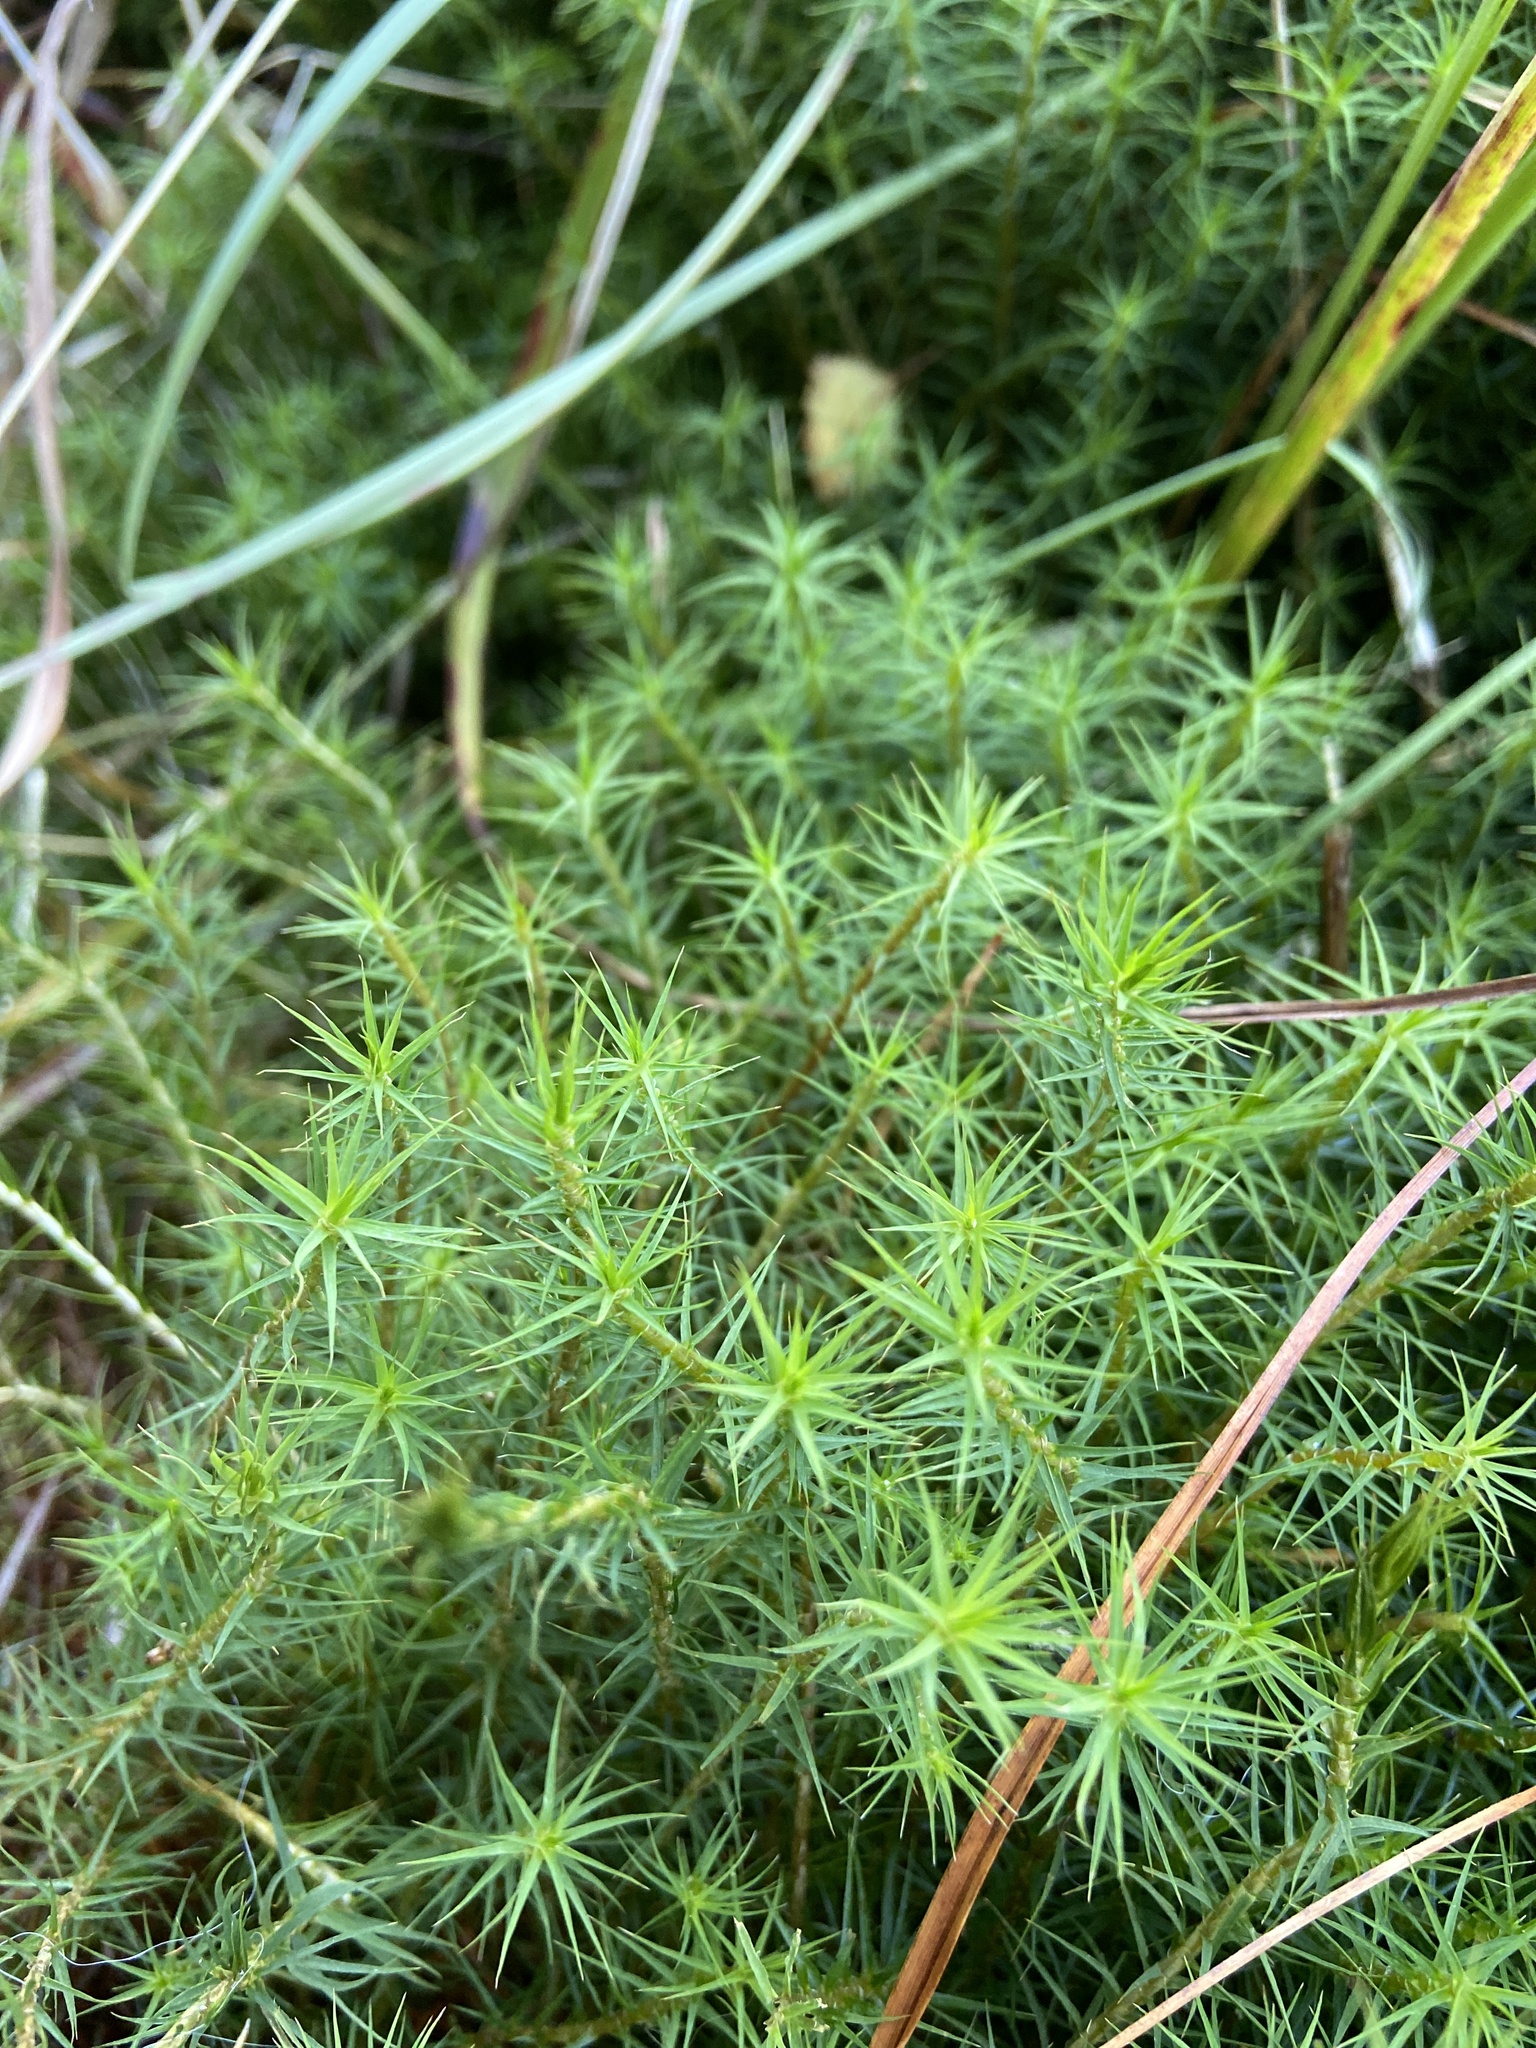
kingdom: Plantae
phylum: Bryophyta
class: Polytrichopsida
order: Polytrichales
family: Polytrichaceae
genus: Polytrichum
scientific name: Polytrichum commune
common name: Common haircap
